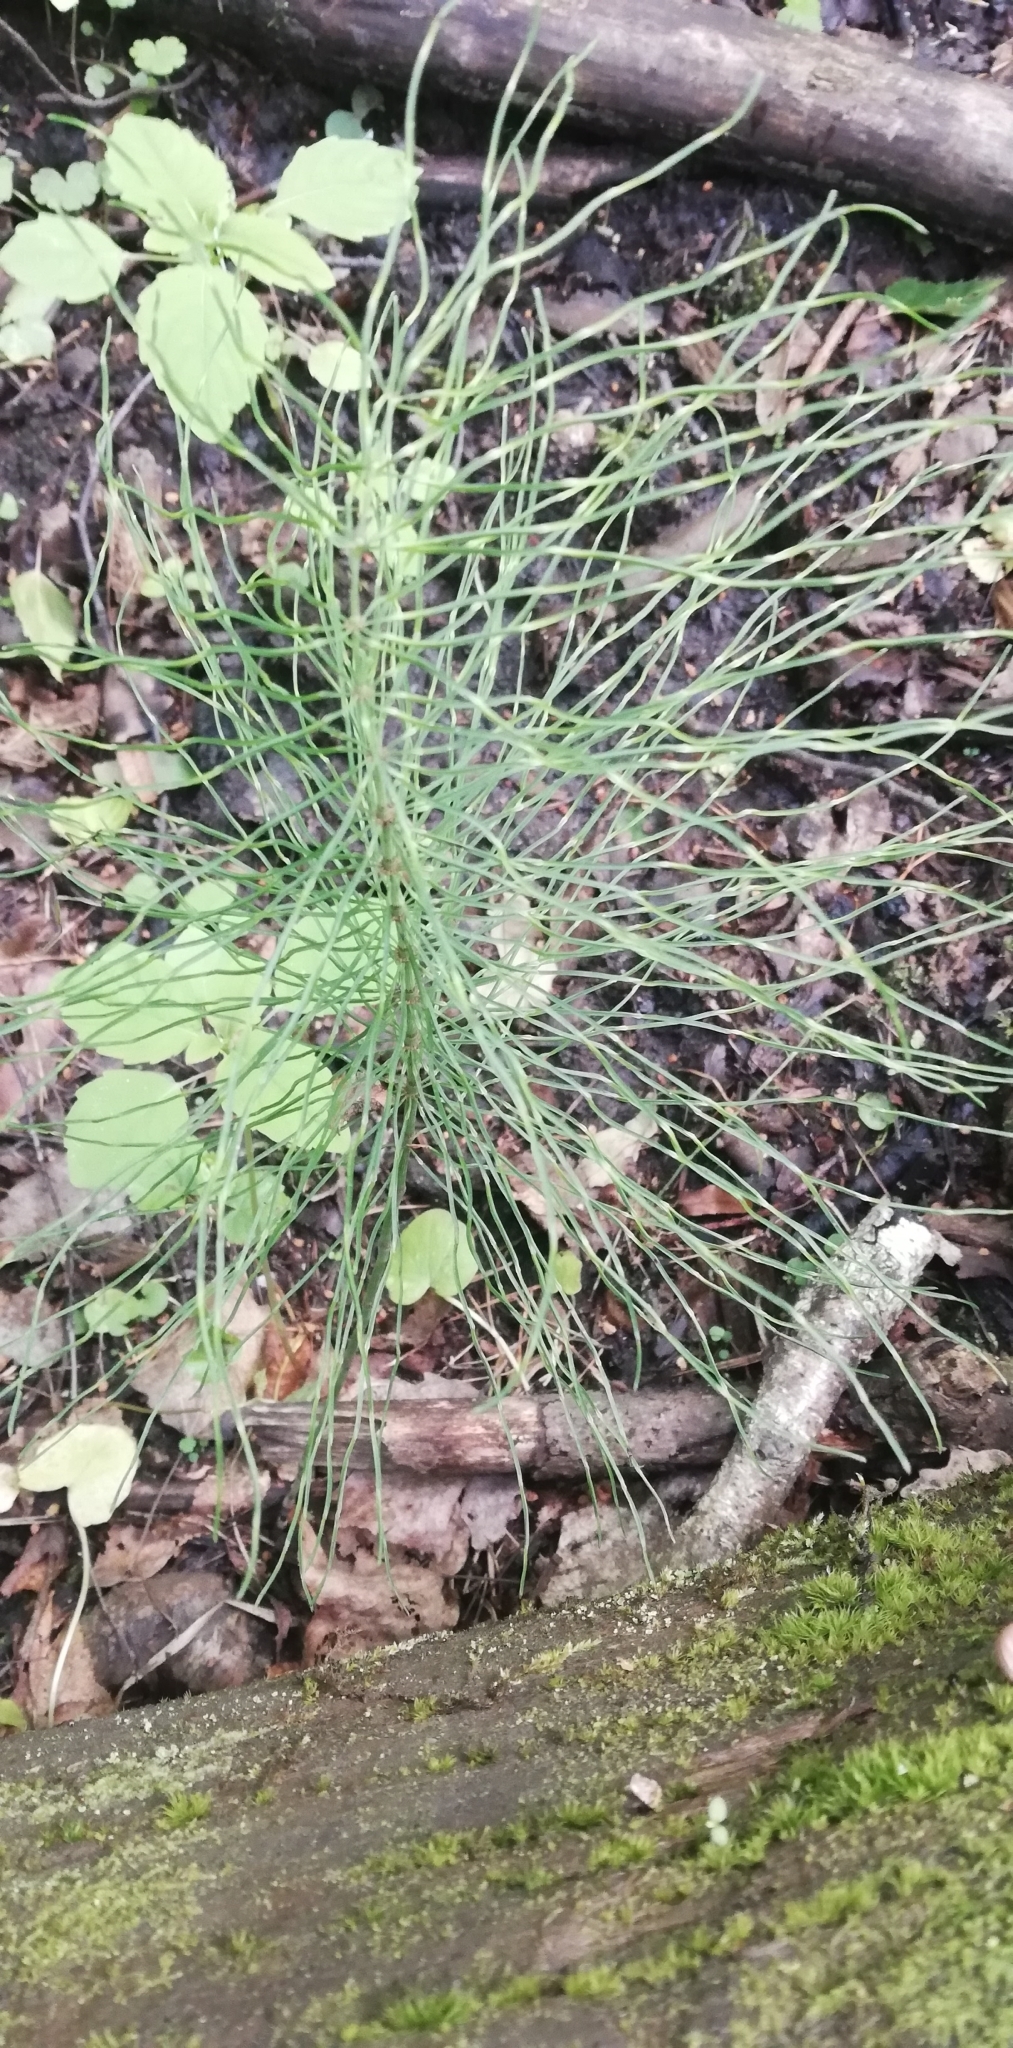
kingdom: Plantae
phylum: Tracheophyta
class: Polypodiopsida
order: Equisetales
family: Equisetaceae
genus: Equisetum
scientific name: Equisetum pratense
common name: Meadow horsetail
